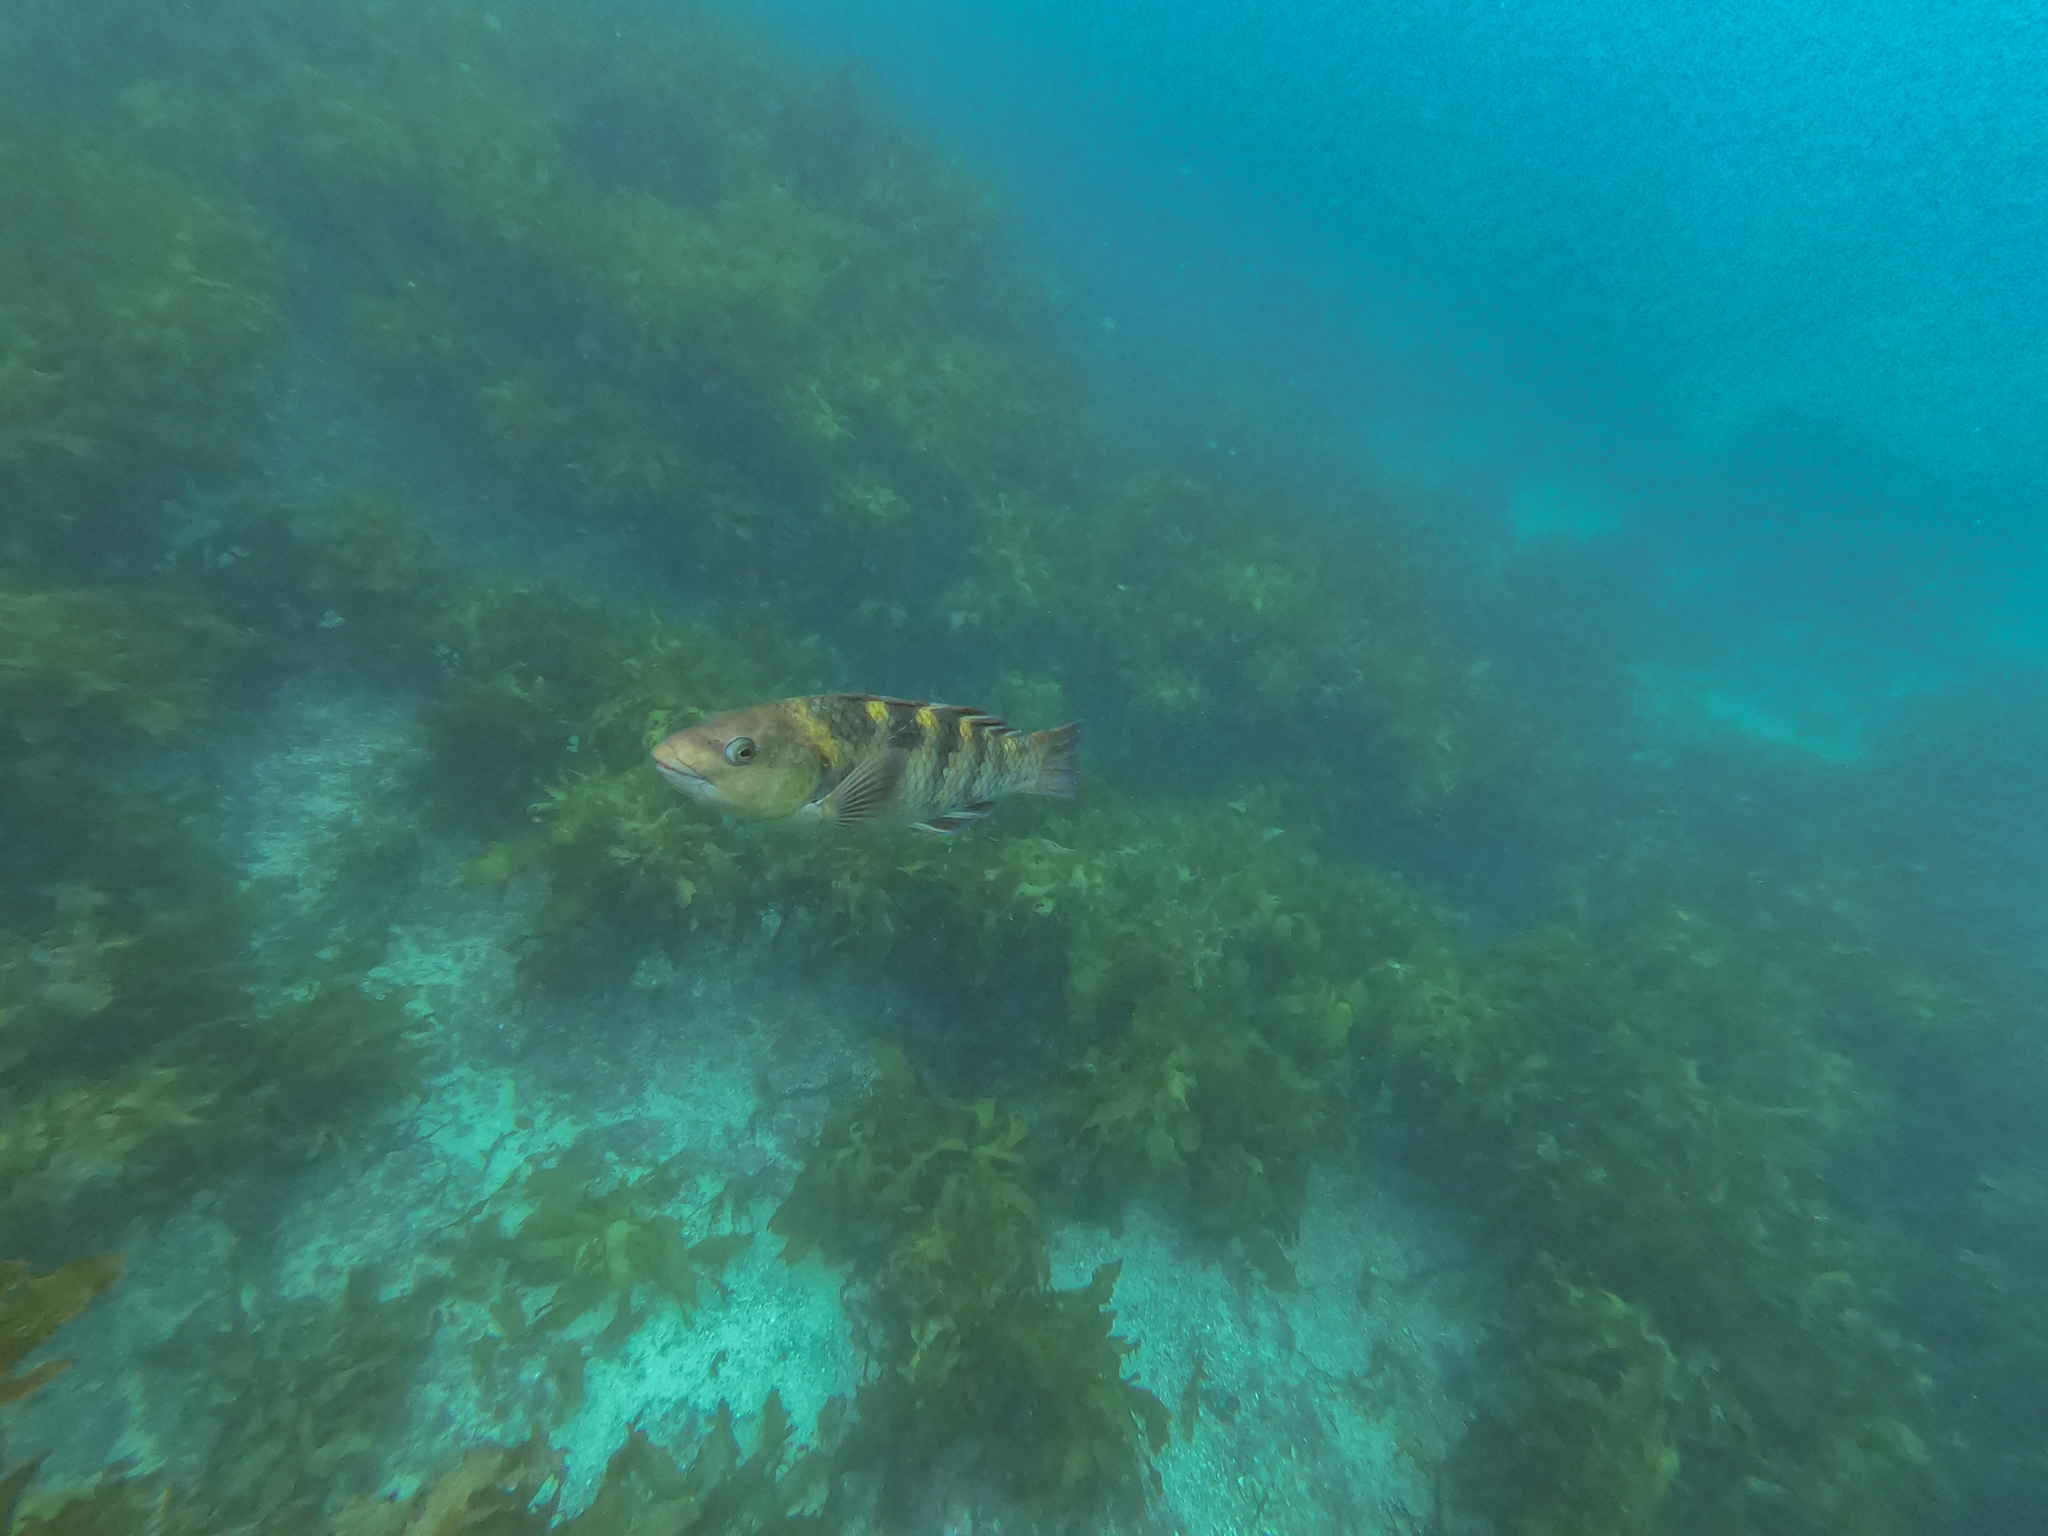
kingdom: Animalia
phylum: Chordata
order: Perciformes
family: Labridae
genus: Notolabrus
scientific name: Notolabrus fucicola
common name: Banded parrotfish
